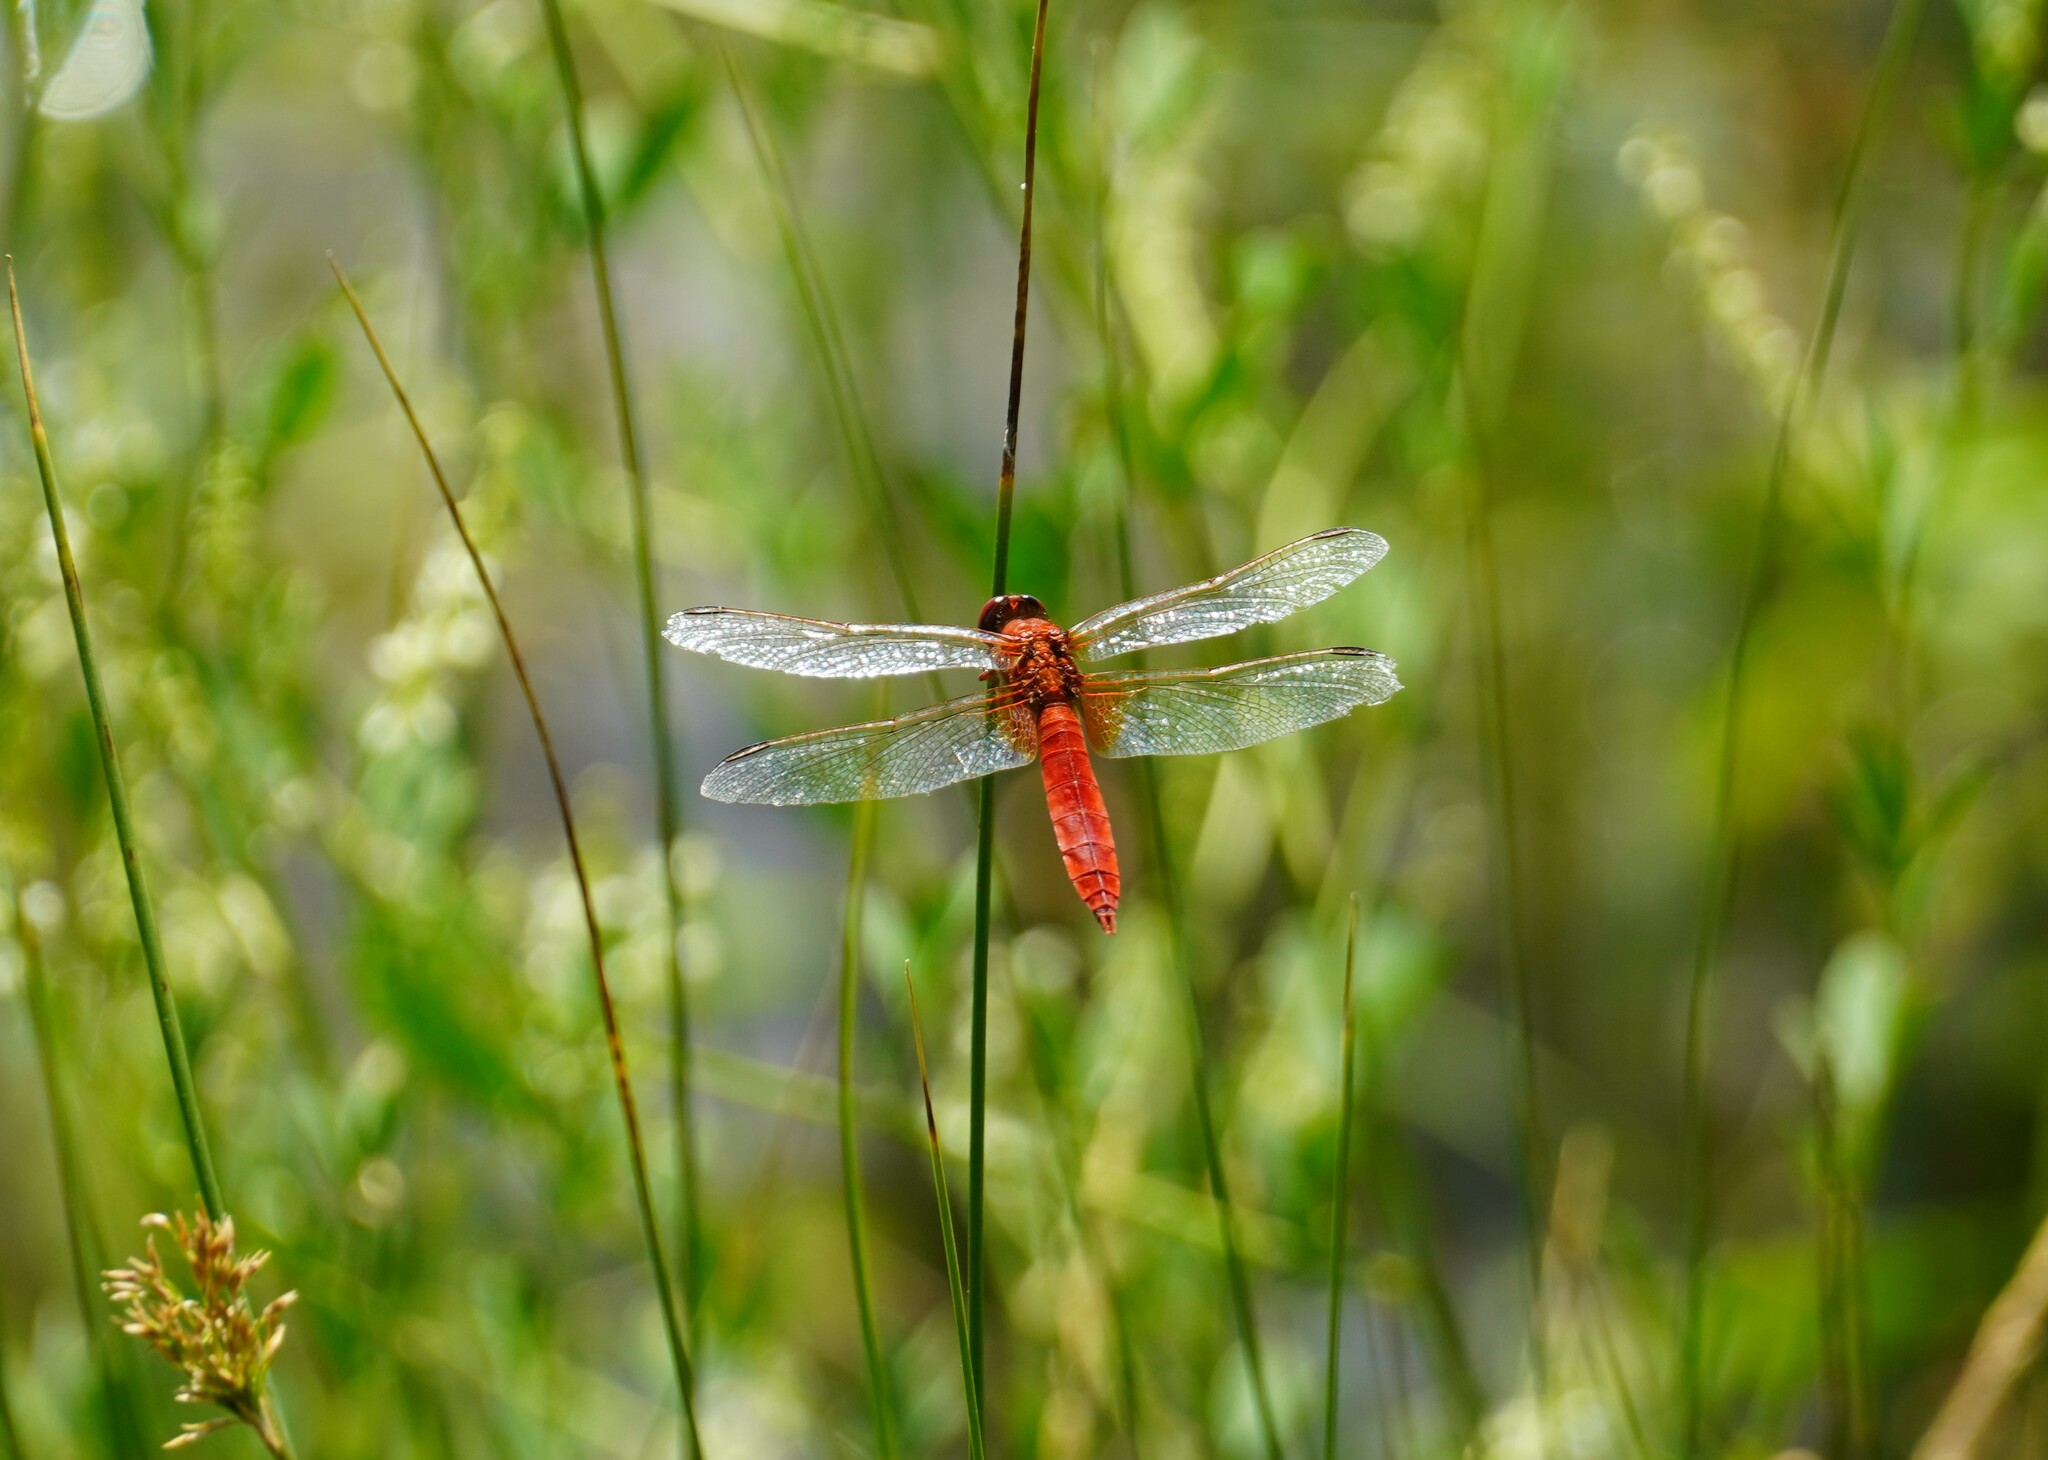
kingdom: Animalia
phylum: Arthropoda
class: Insecta
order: Odonata
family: Libellulidae
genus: Crocothemis
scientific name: Crocothemis erythraea
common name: Scarlet dragonfly
